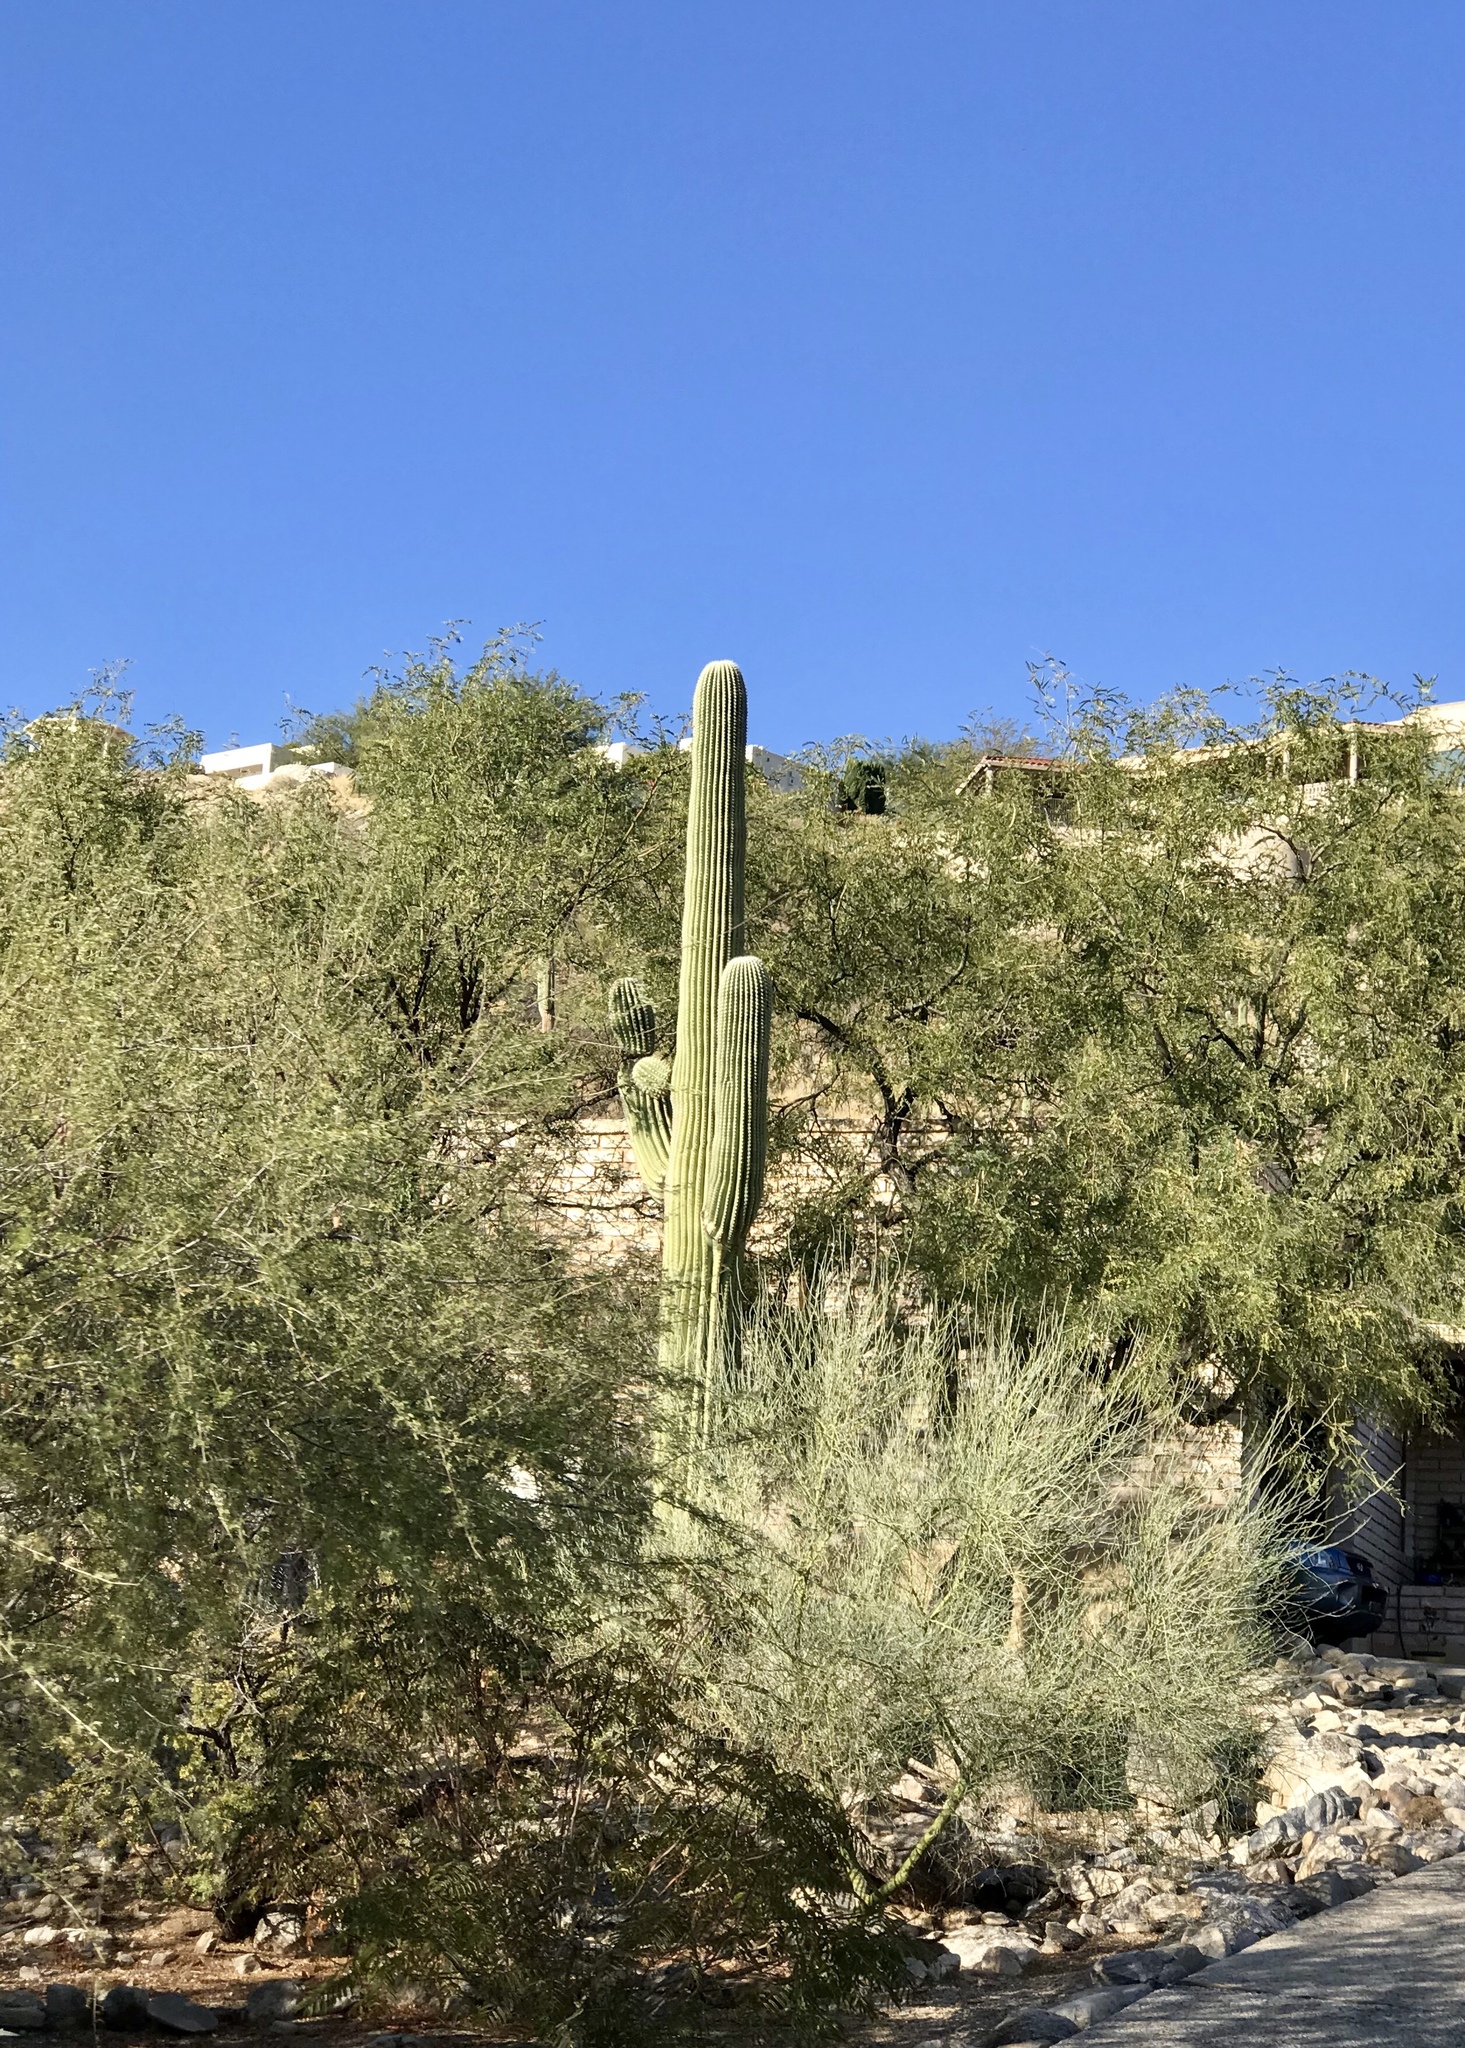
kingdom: Plantae
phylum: Tracheophyta
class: Magnoliopsida
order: Caryophyllales
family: Cactaceae
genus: Carnegiea
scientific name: Carnegiea gigantea
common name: Saguaro
